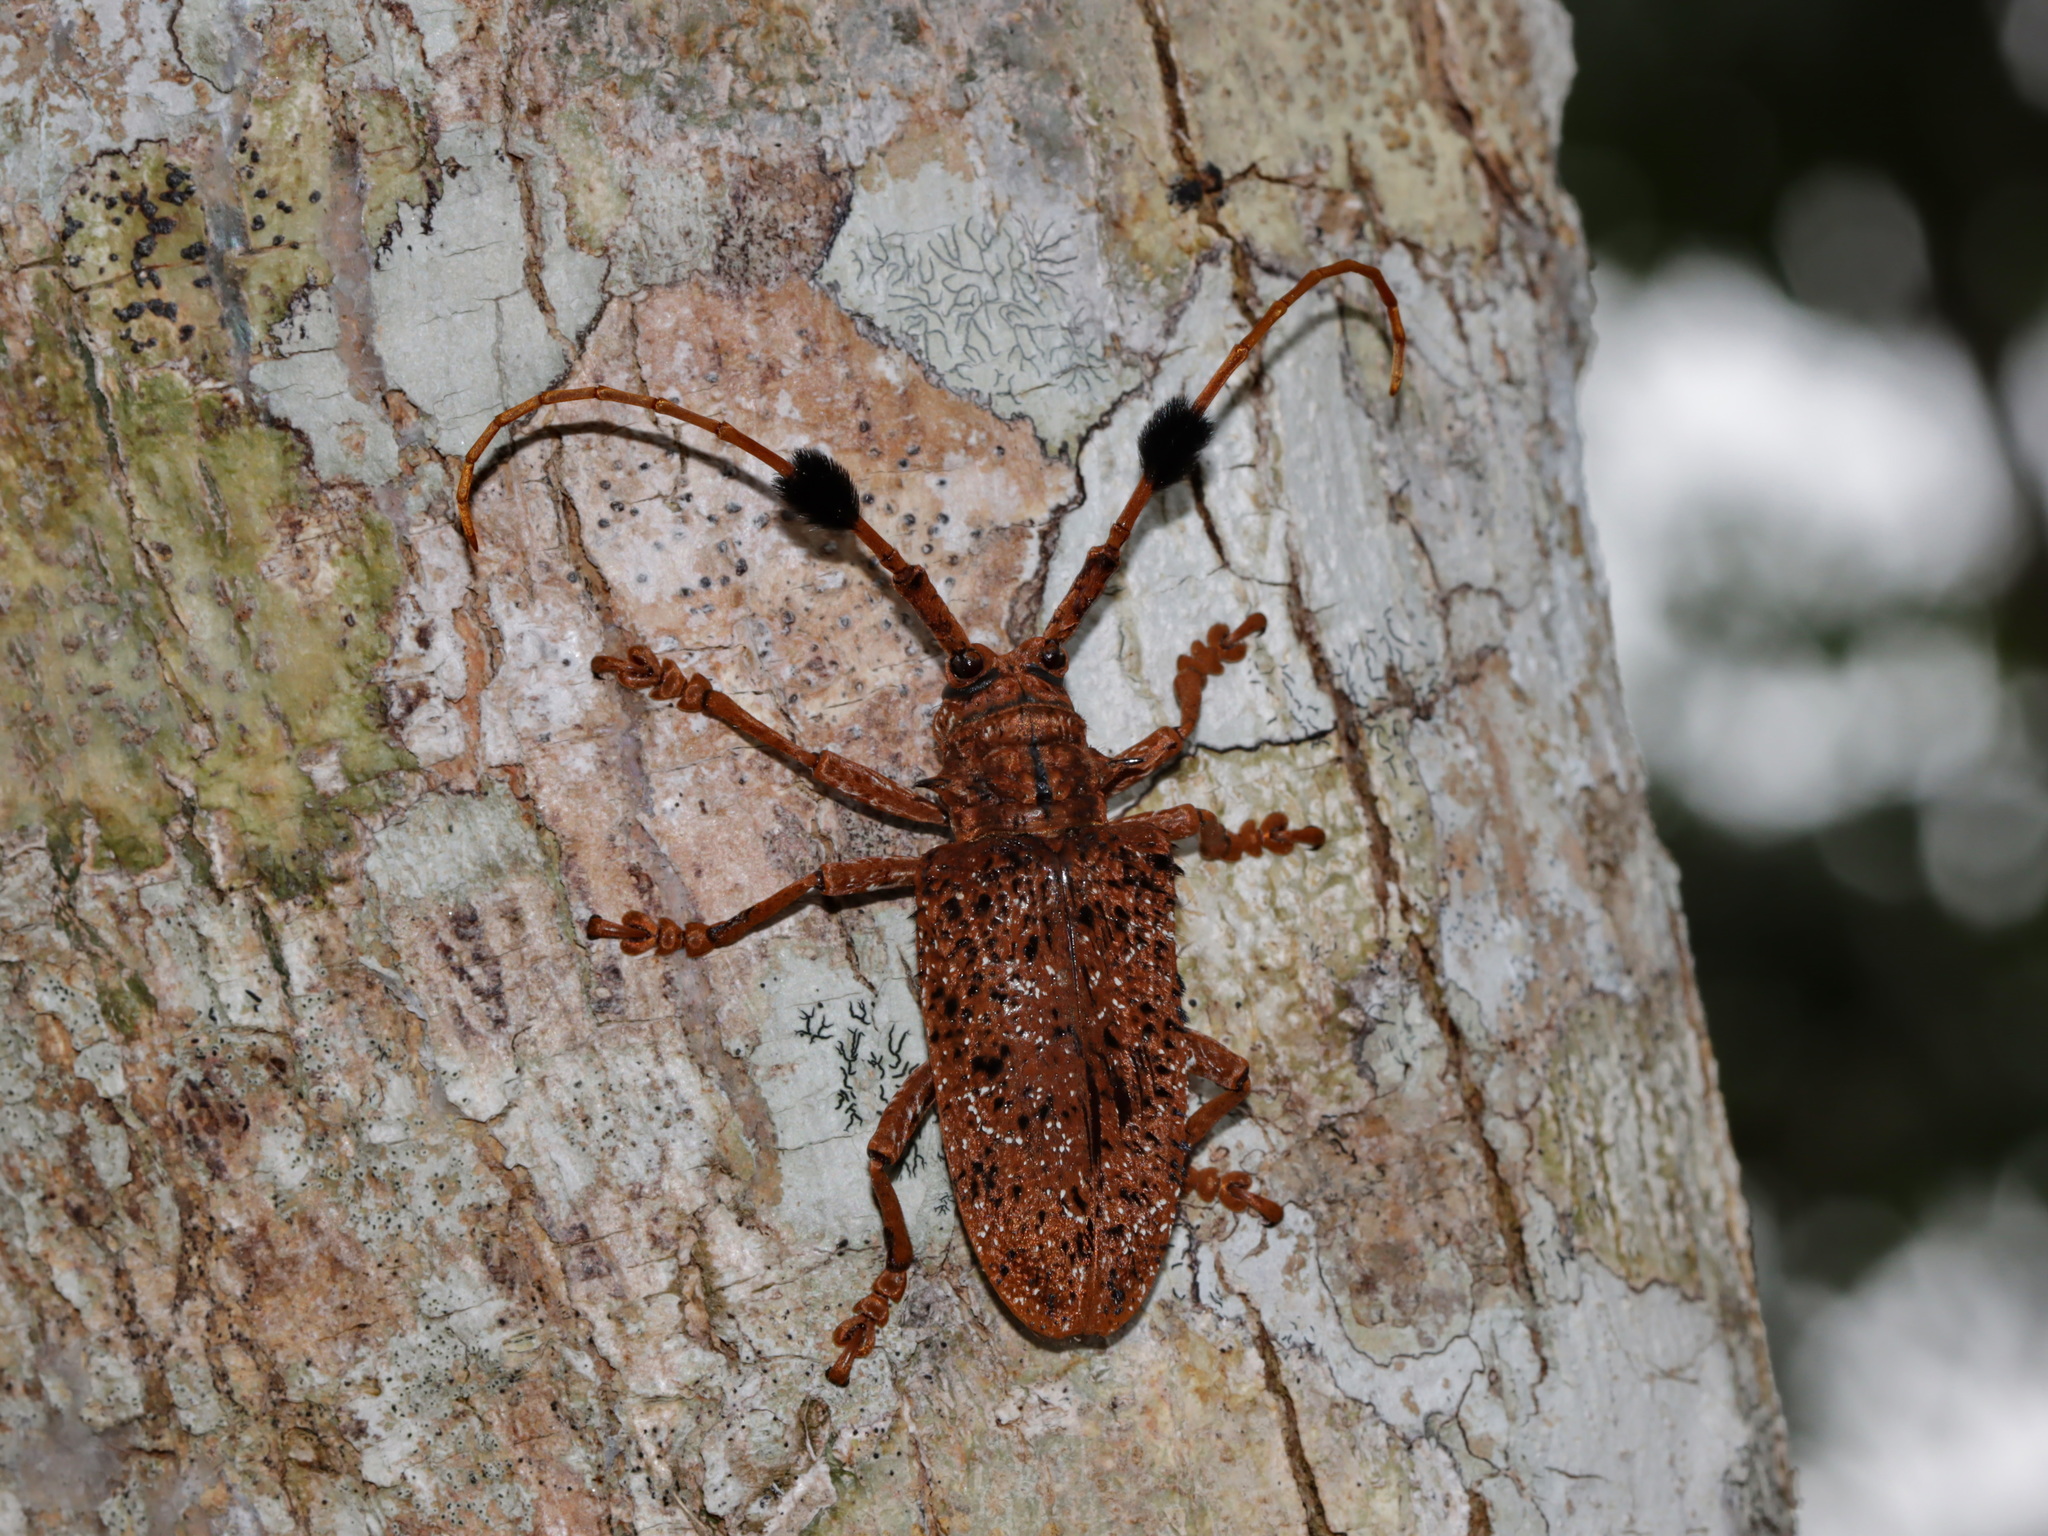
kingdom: Animalia
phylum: Arthropoda
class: Insecta
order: Coleoptera
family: Cerambycidae
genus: Aristobia
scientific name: Aristobia freneyi
